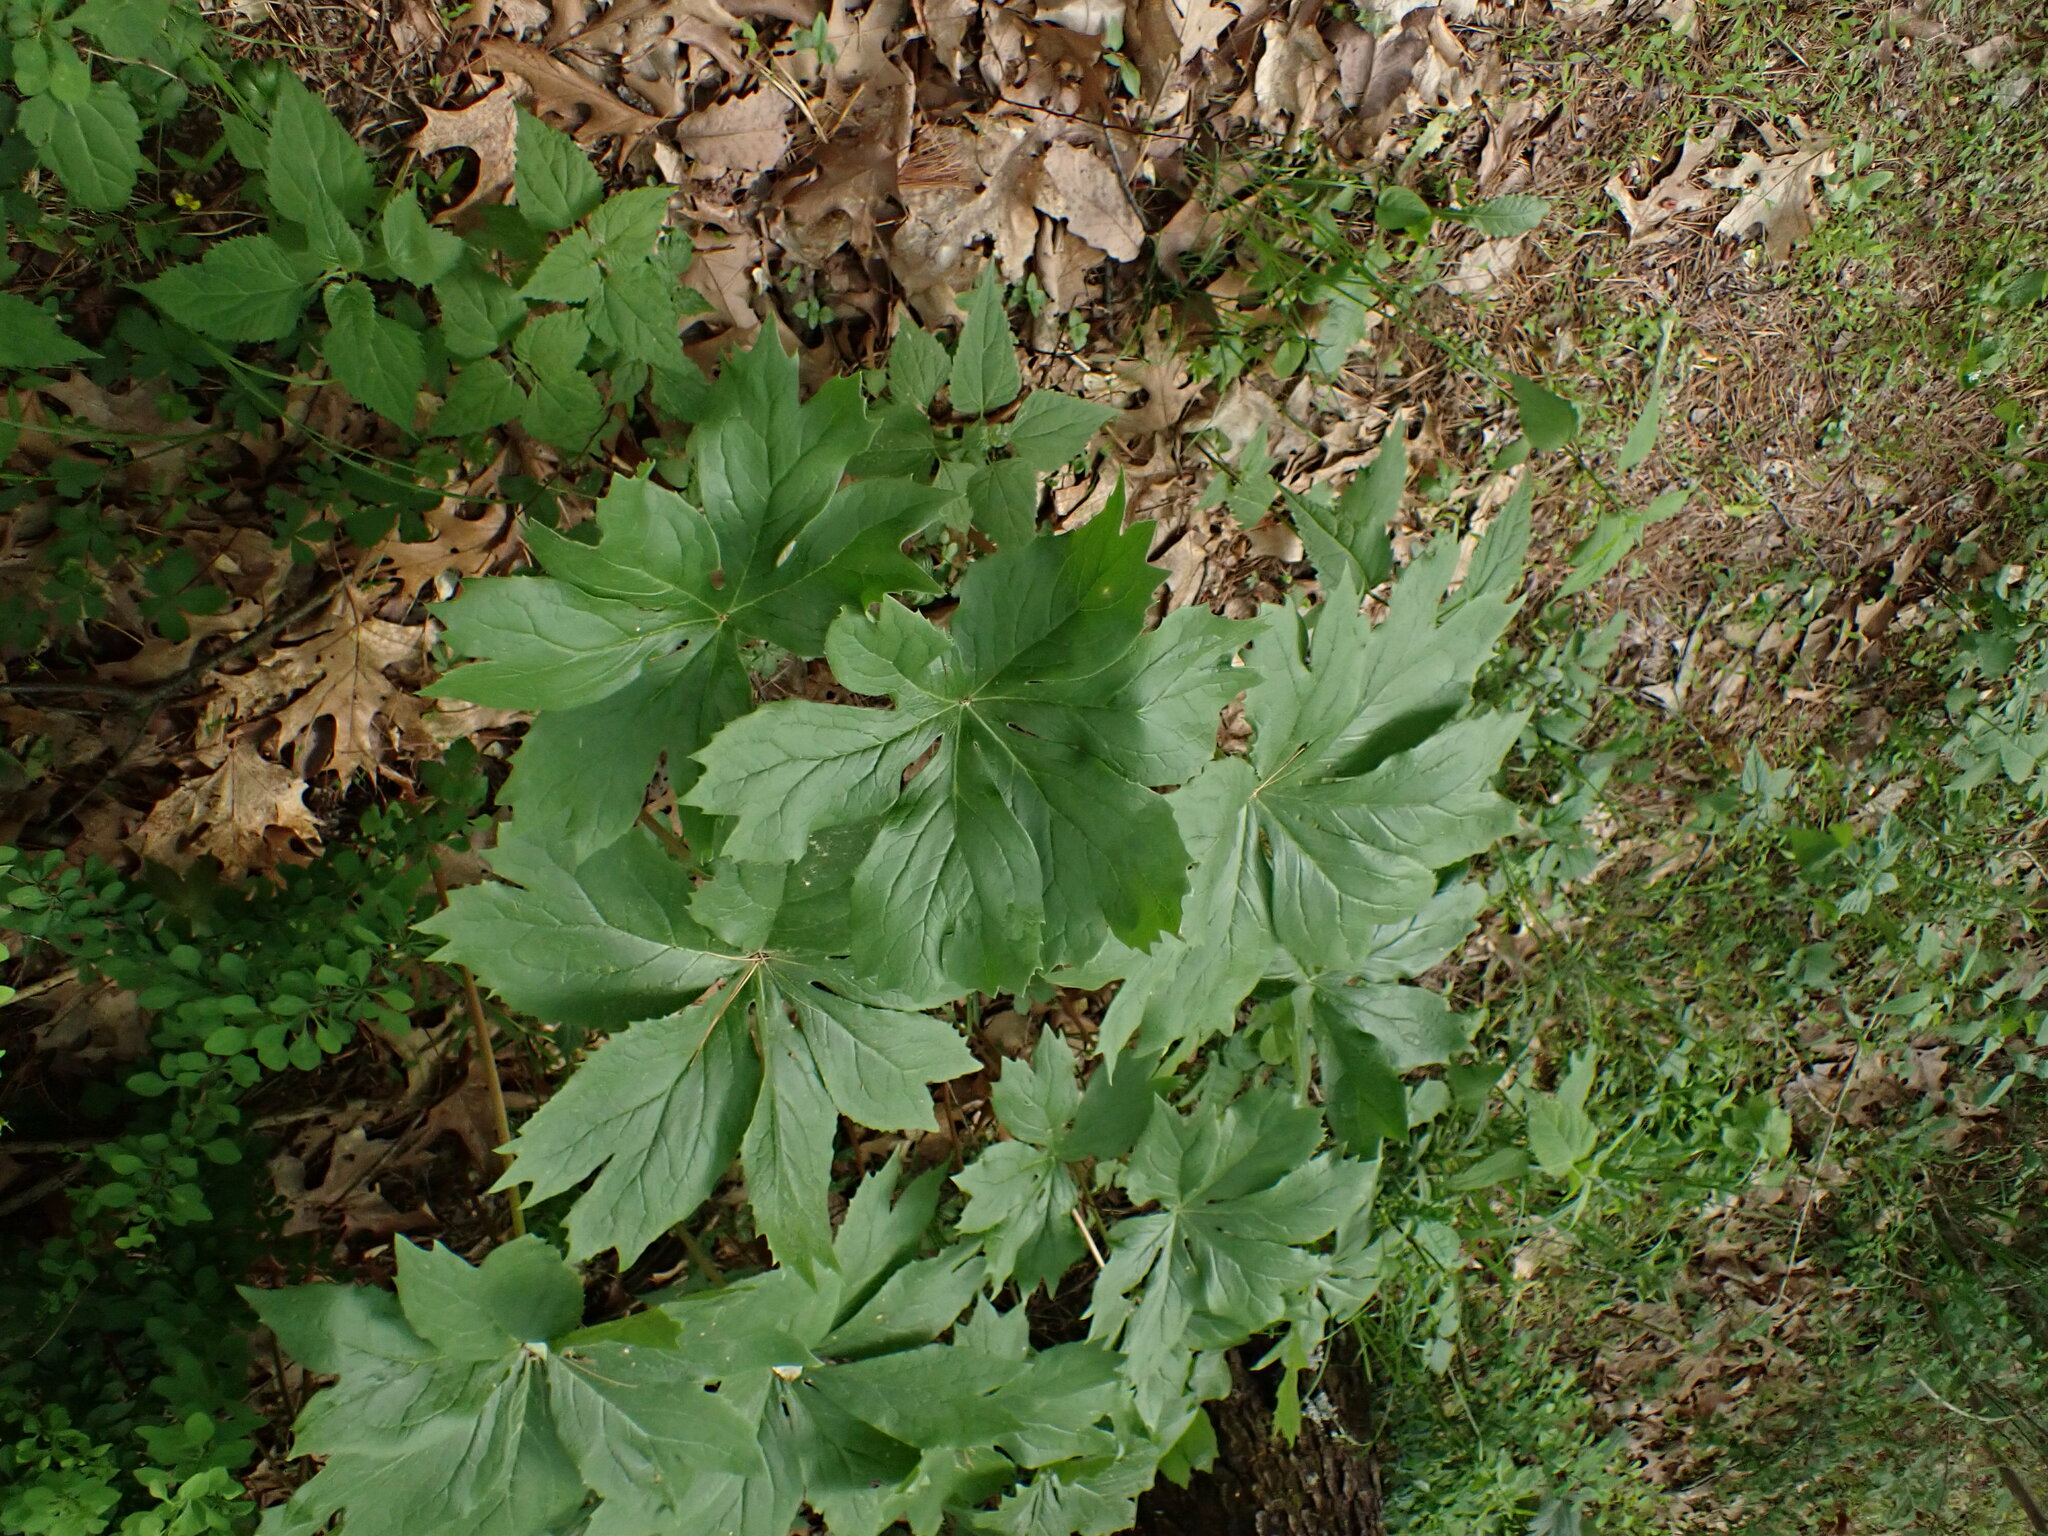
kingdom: Plantae
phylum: Tracheophyta
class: Magnoliopsida
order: Ranunculales
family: Berberidaceae
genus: Podophyllum
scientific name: Podophyllum peltatum
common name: Wild mandrake
